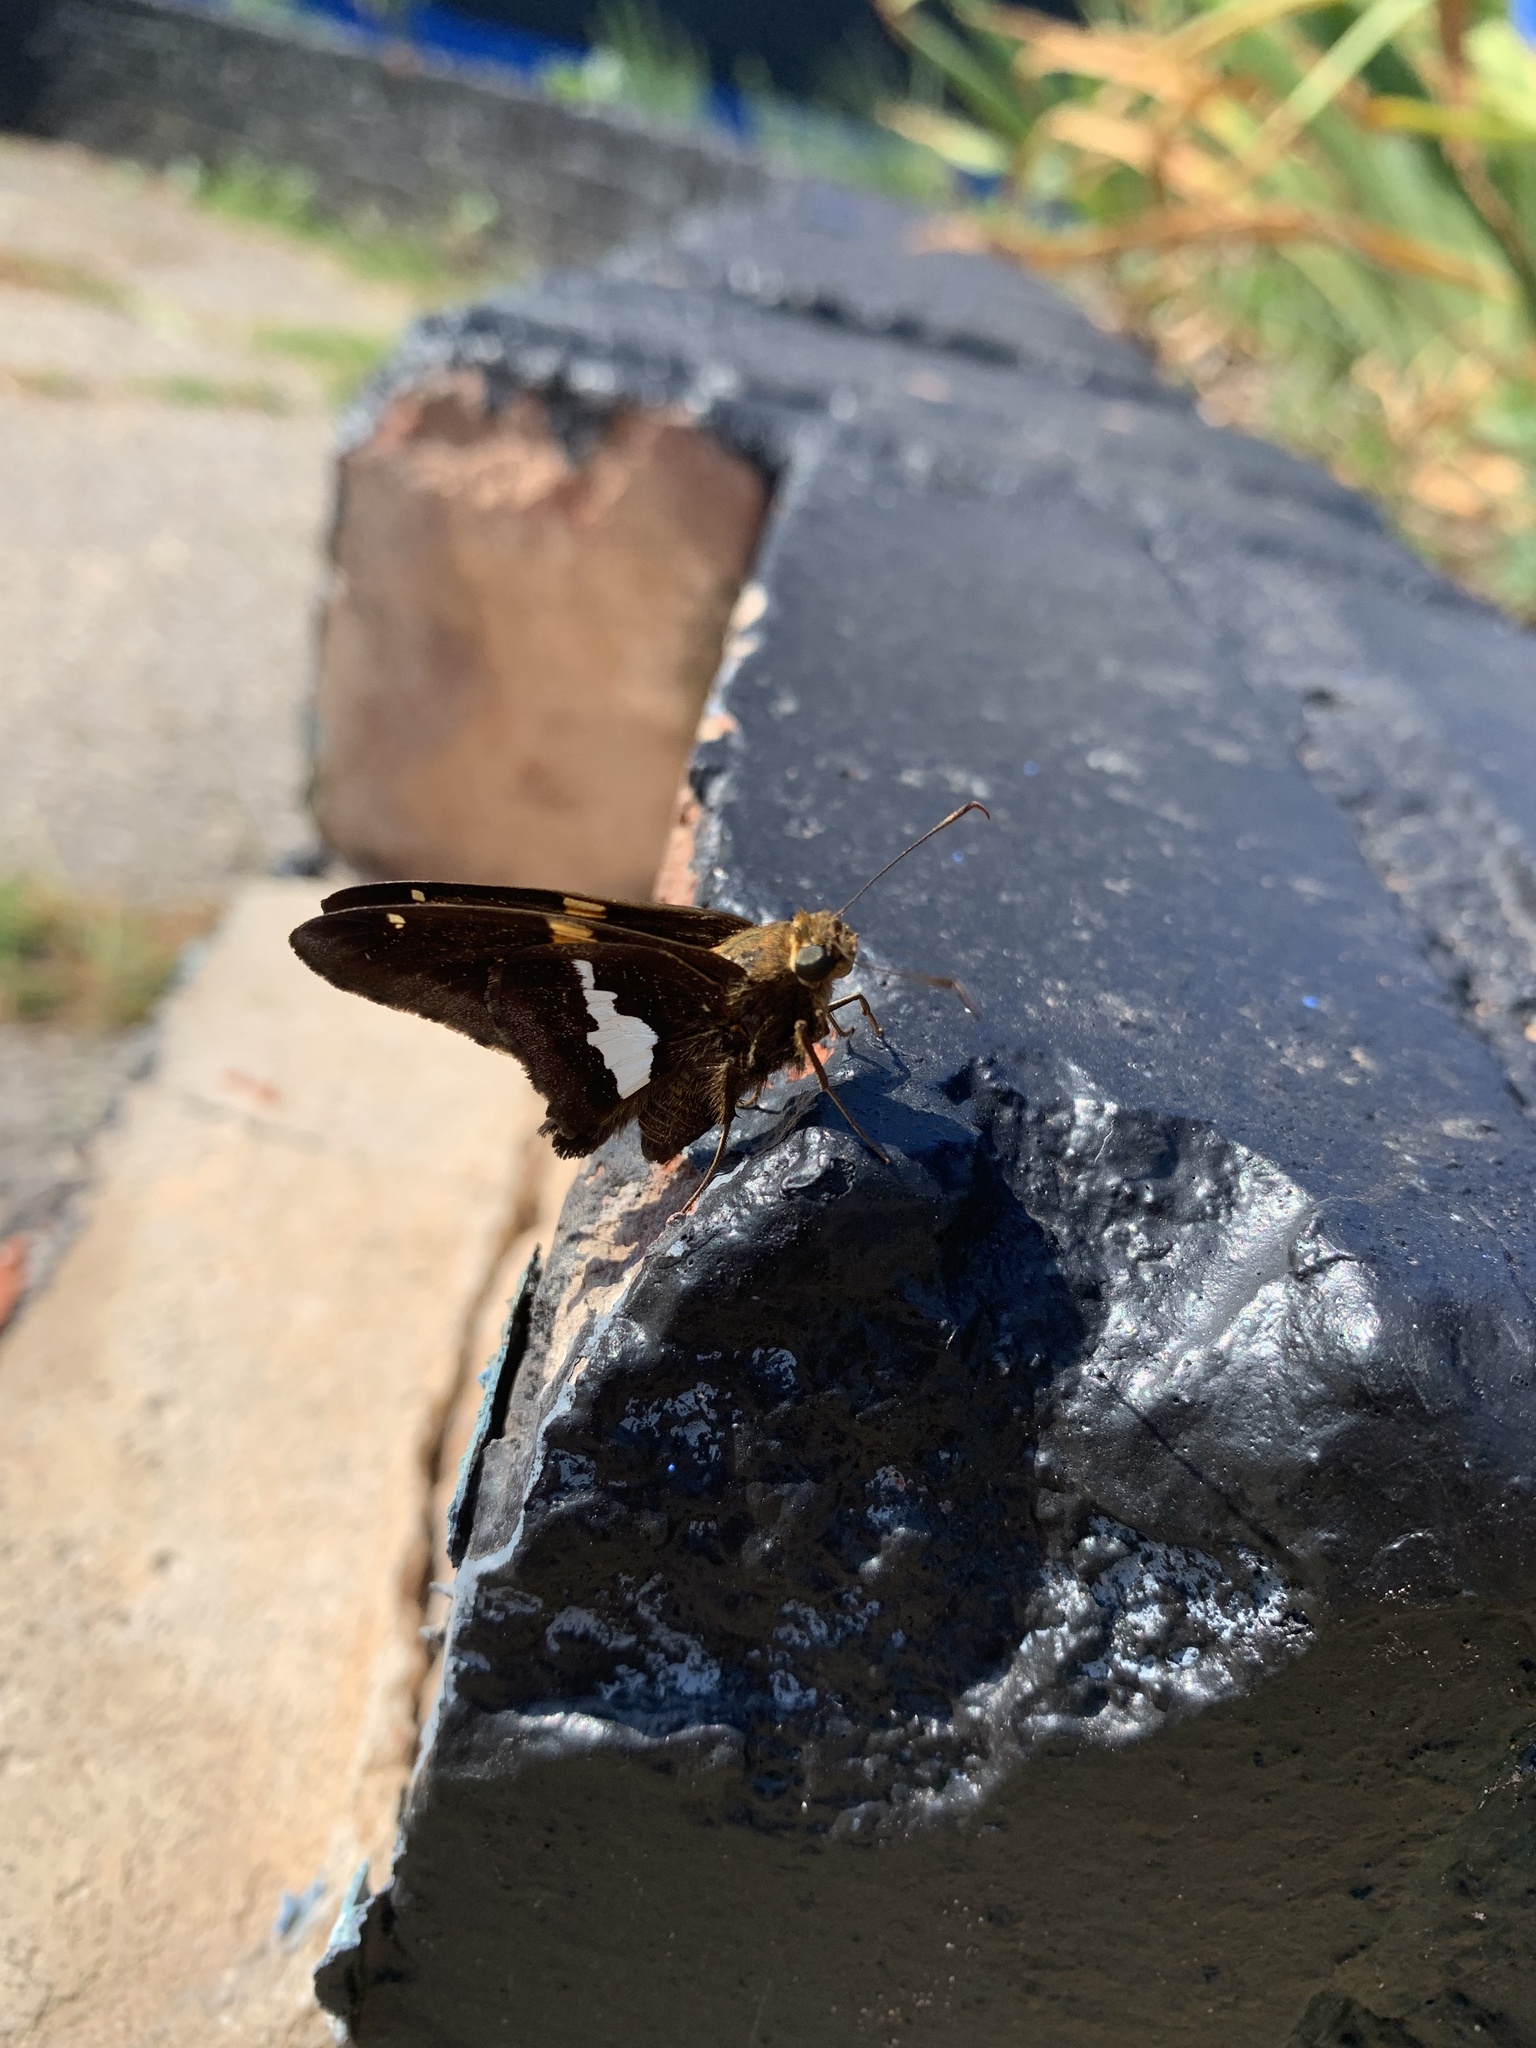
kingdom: Animalia
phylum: Arthropoda
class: Insecta
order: Lepidoptera
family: Hesperiidae
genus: Epargyreus
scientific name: Epargyreus clarus
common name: Silver-spotted skipper
